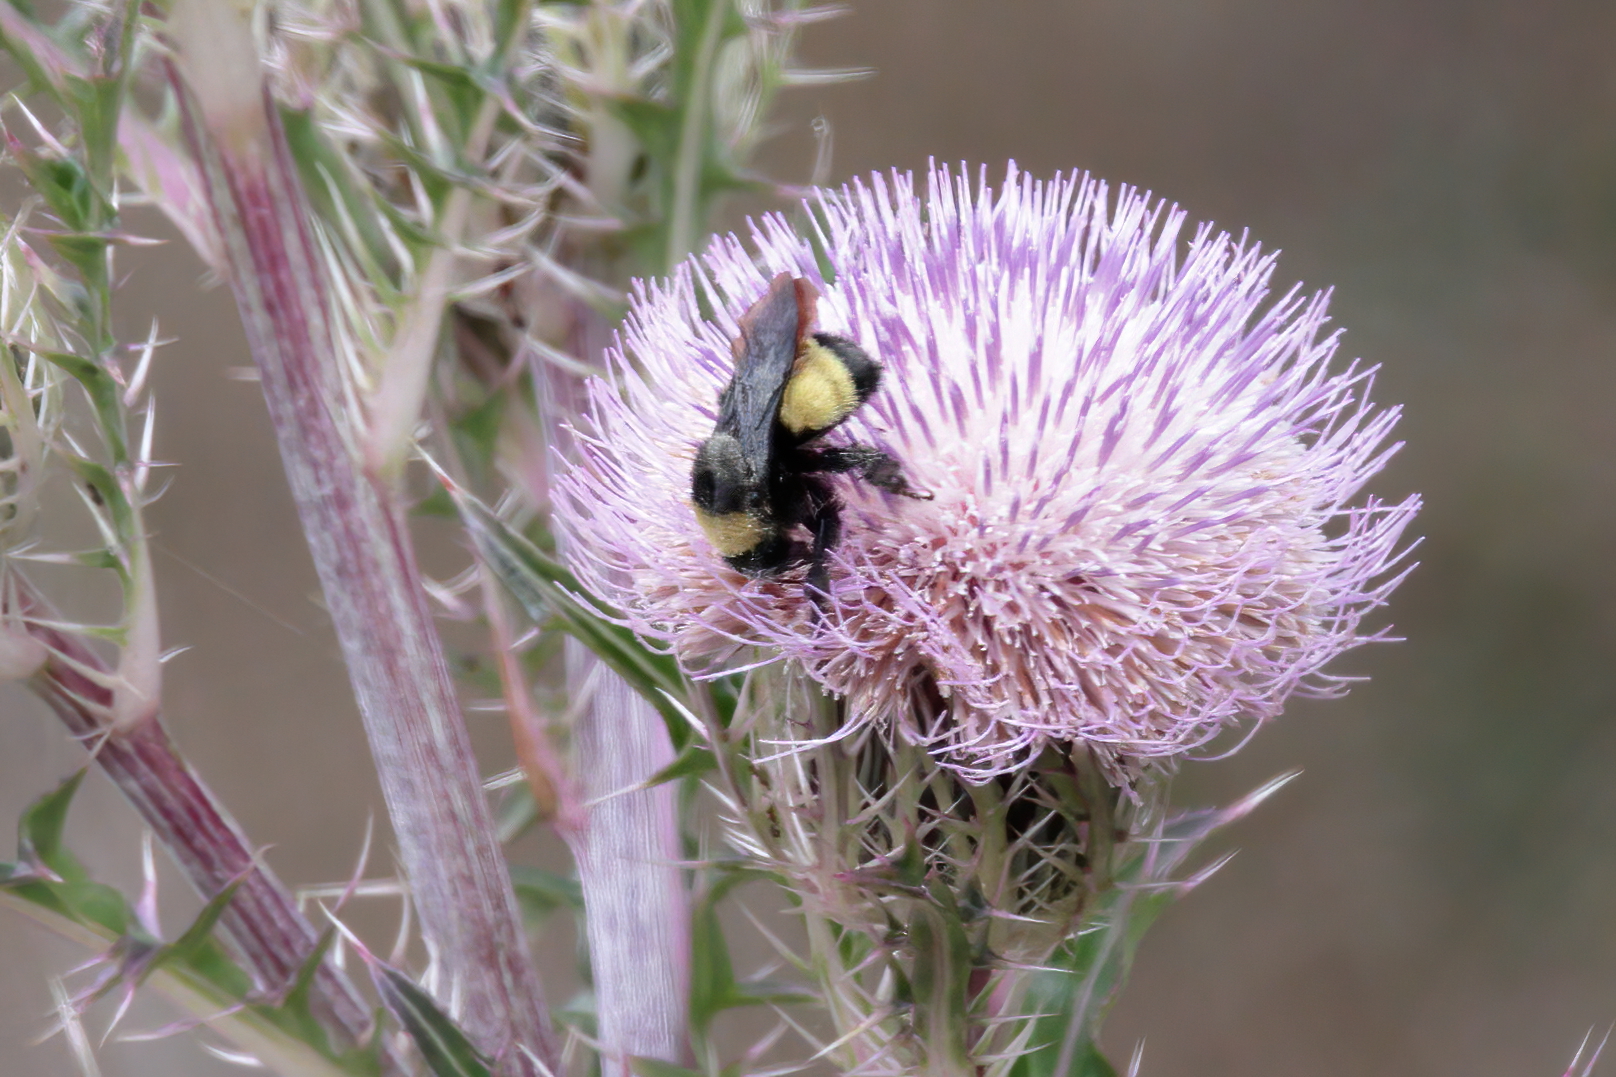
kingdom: Animalia
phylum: Arthropoda
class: Insecta
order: Hymenoptera
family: Apidae
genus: Bombus
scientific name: Bombus pensylvanicus
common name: Bumble bee
